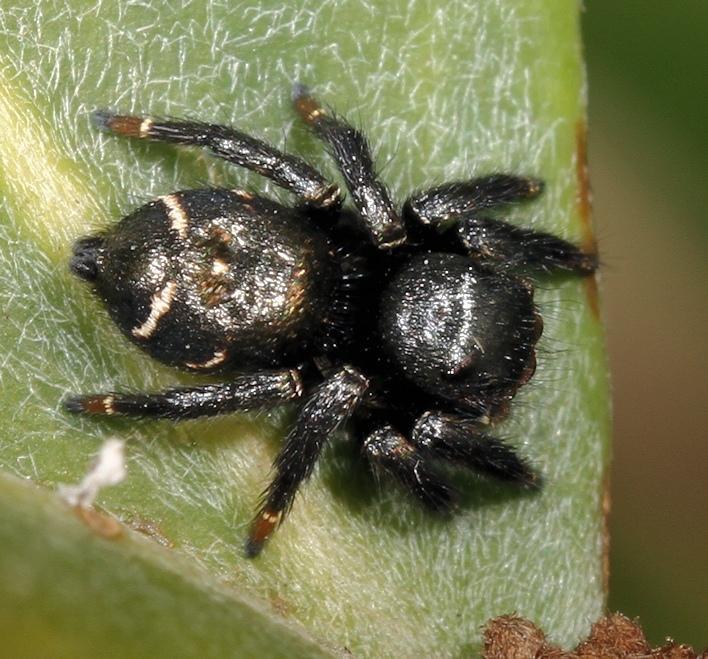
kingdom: Animalia
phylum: Arthropoda
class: Arachnida
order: Araneae
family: Salticidae
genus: Baryphas
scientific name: Baryphas ahenus
